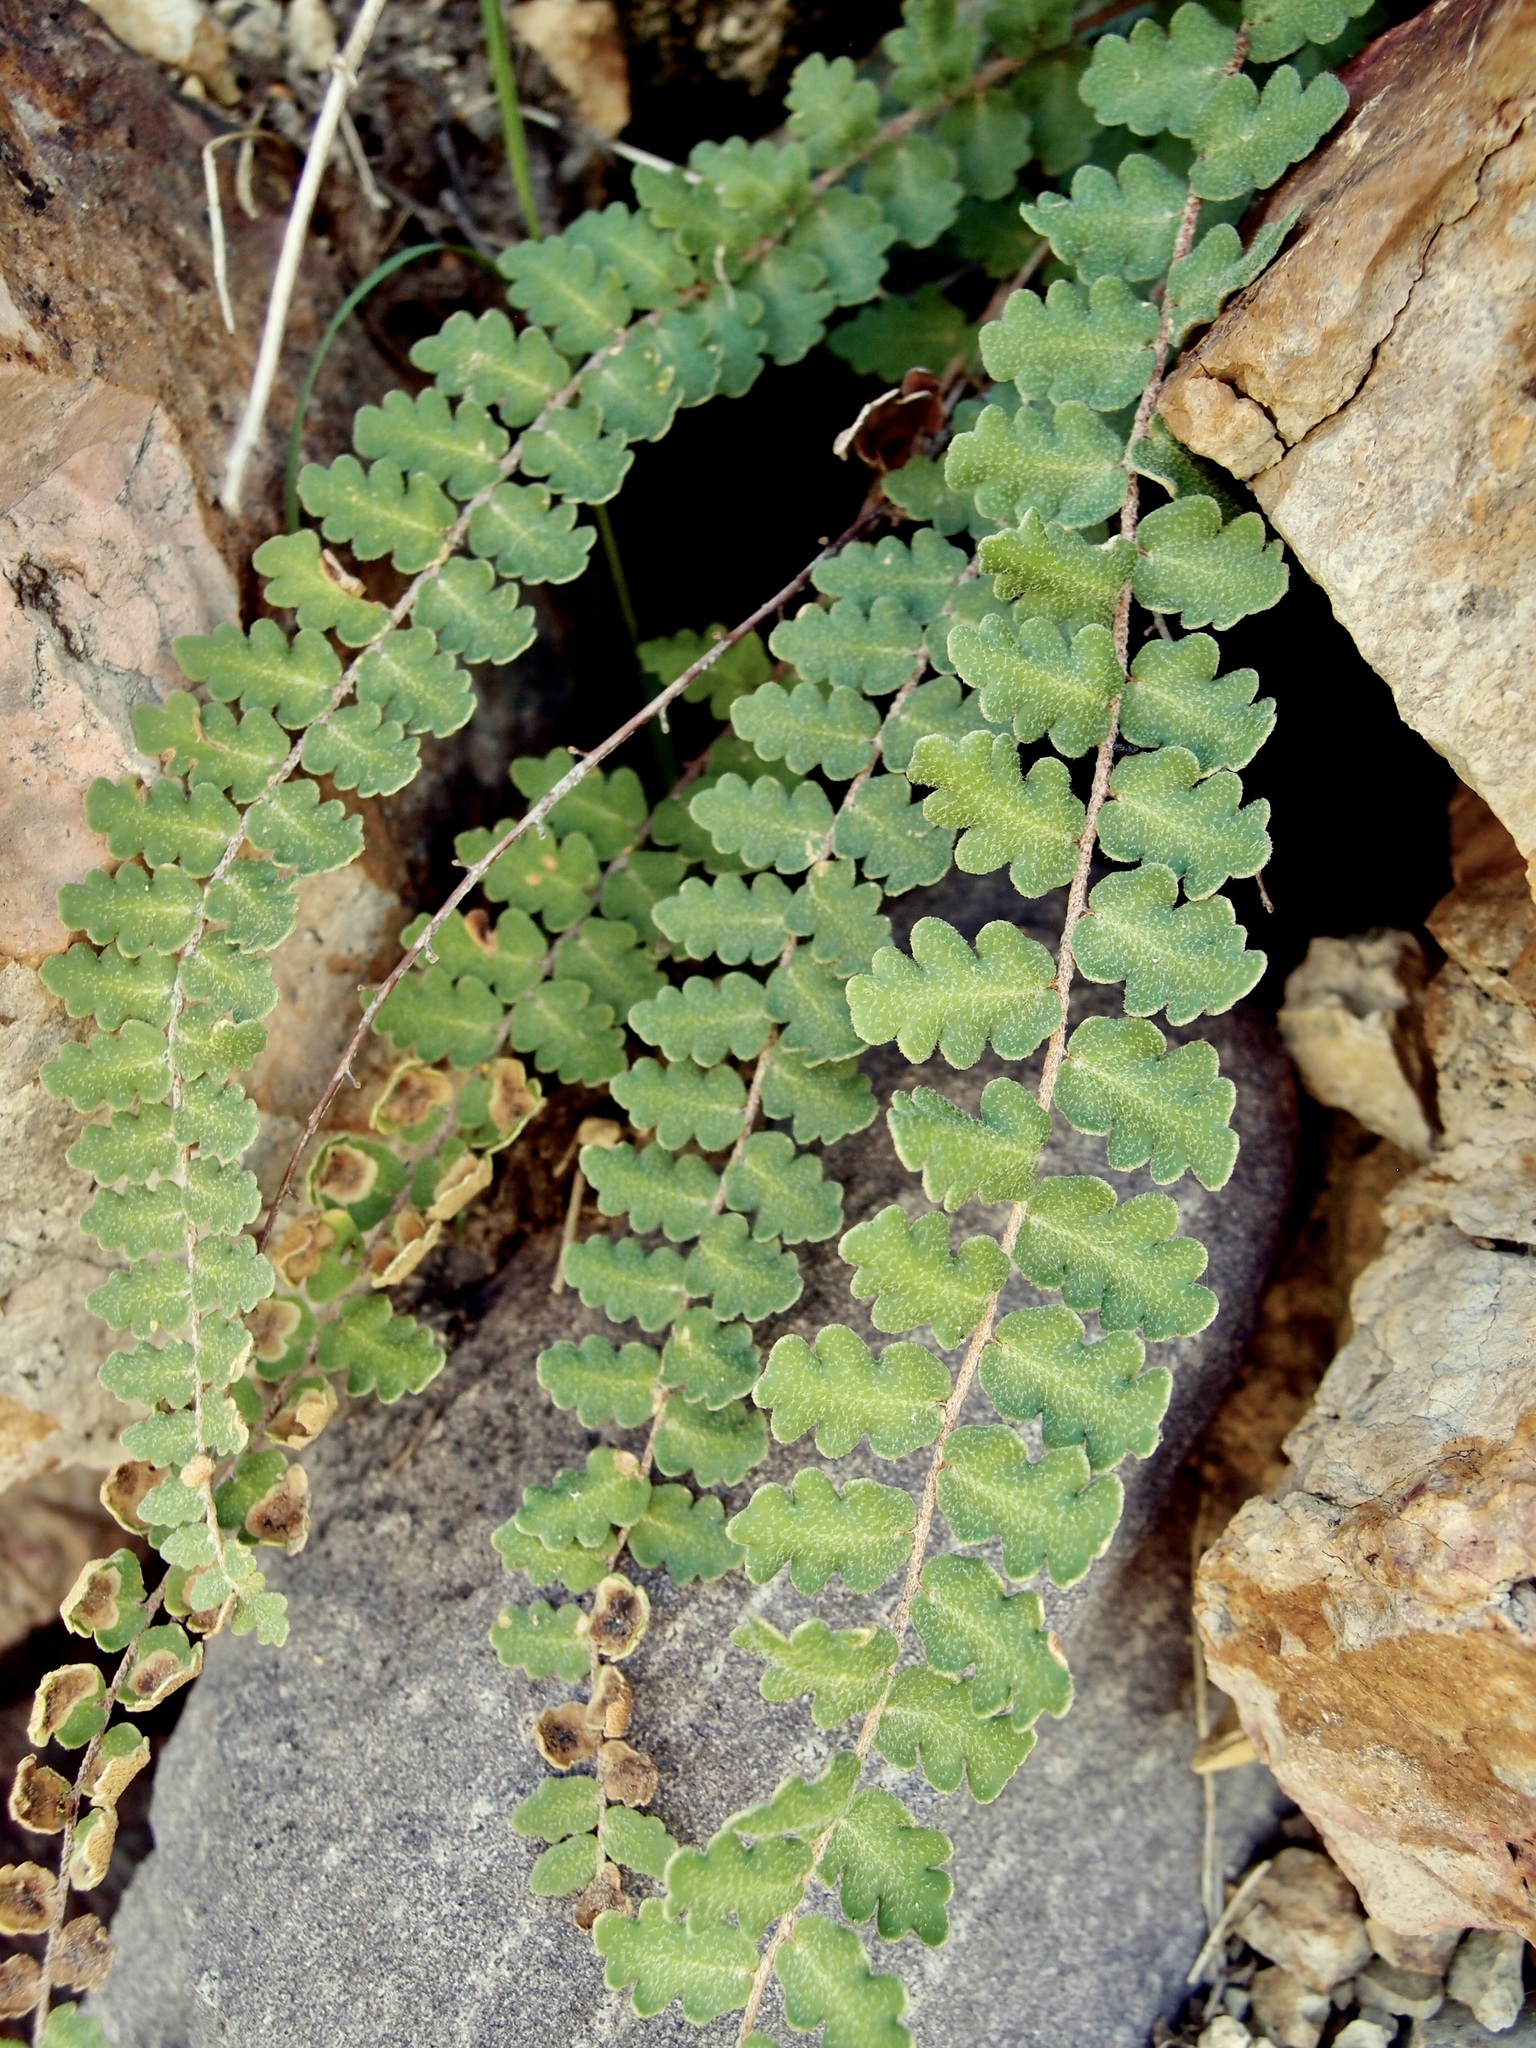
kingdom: Plantae
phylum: Tracheophyta
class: Polypodiopsida
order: Polypodiales
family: Pteridaceae
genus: Astrolepis
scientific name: Astrolepis sinuata
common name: Wavy scaly cloakfern
